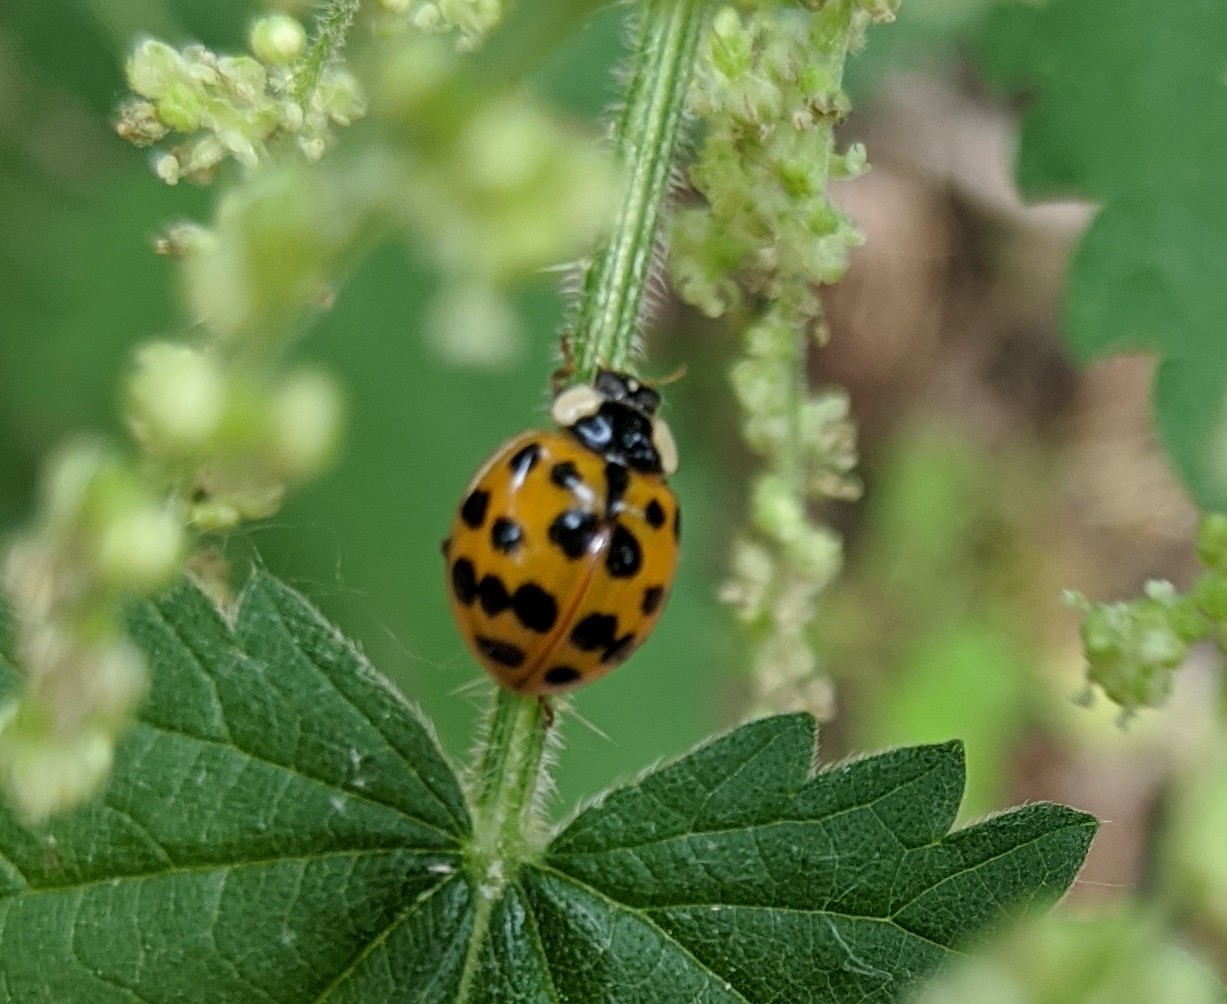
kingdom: Animalia
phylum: Arthropoda
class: Insecta
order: Coleoptera
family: Coccinellidae
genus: Harmonia
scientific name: Harmonia axyridis
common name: Harlequin ladybird
